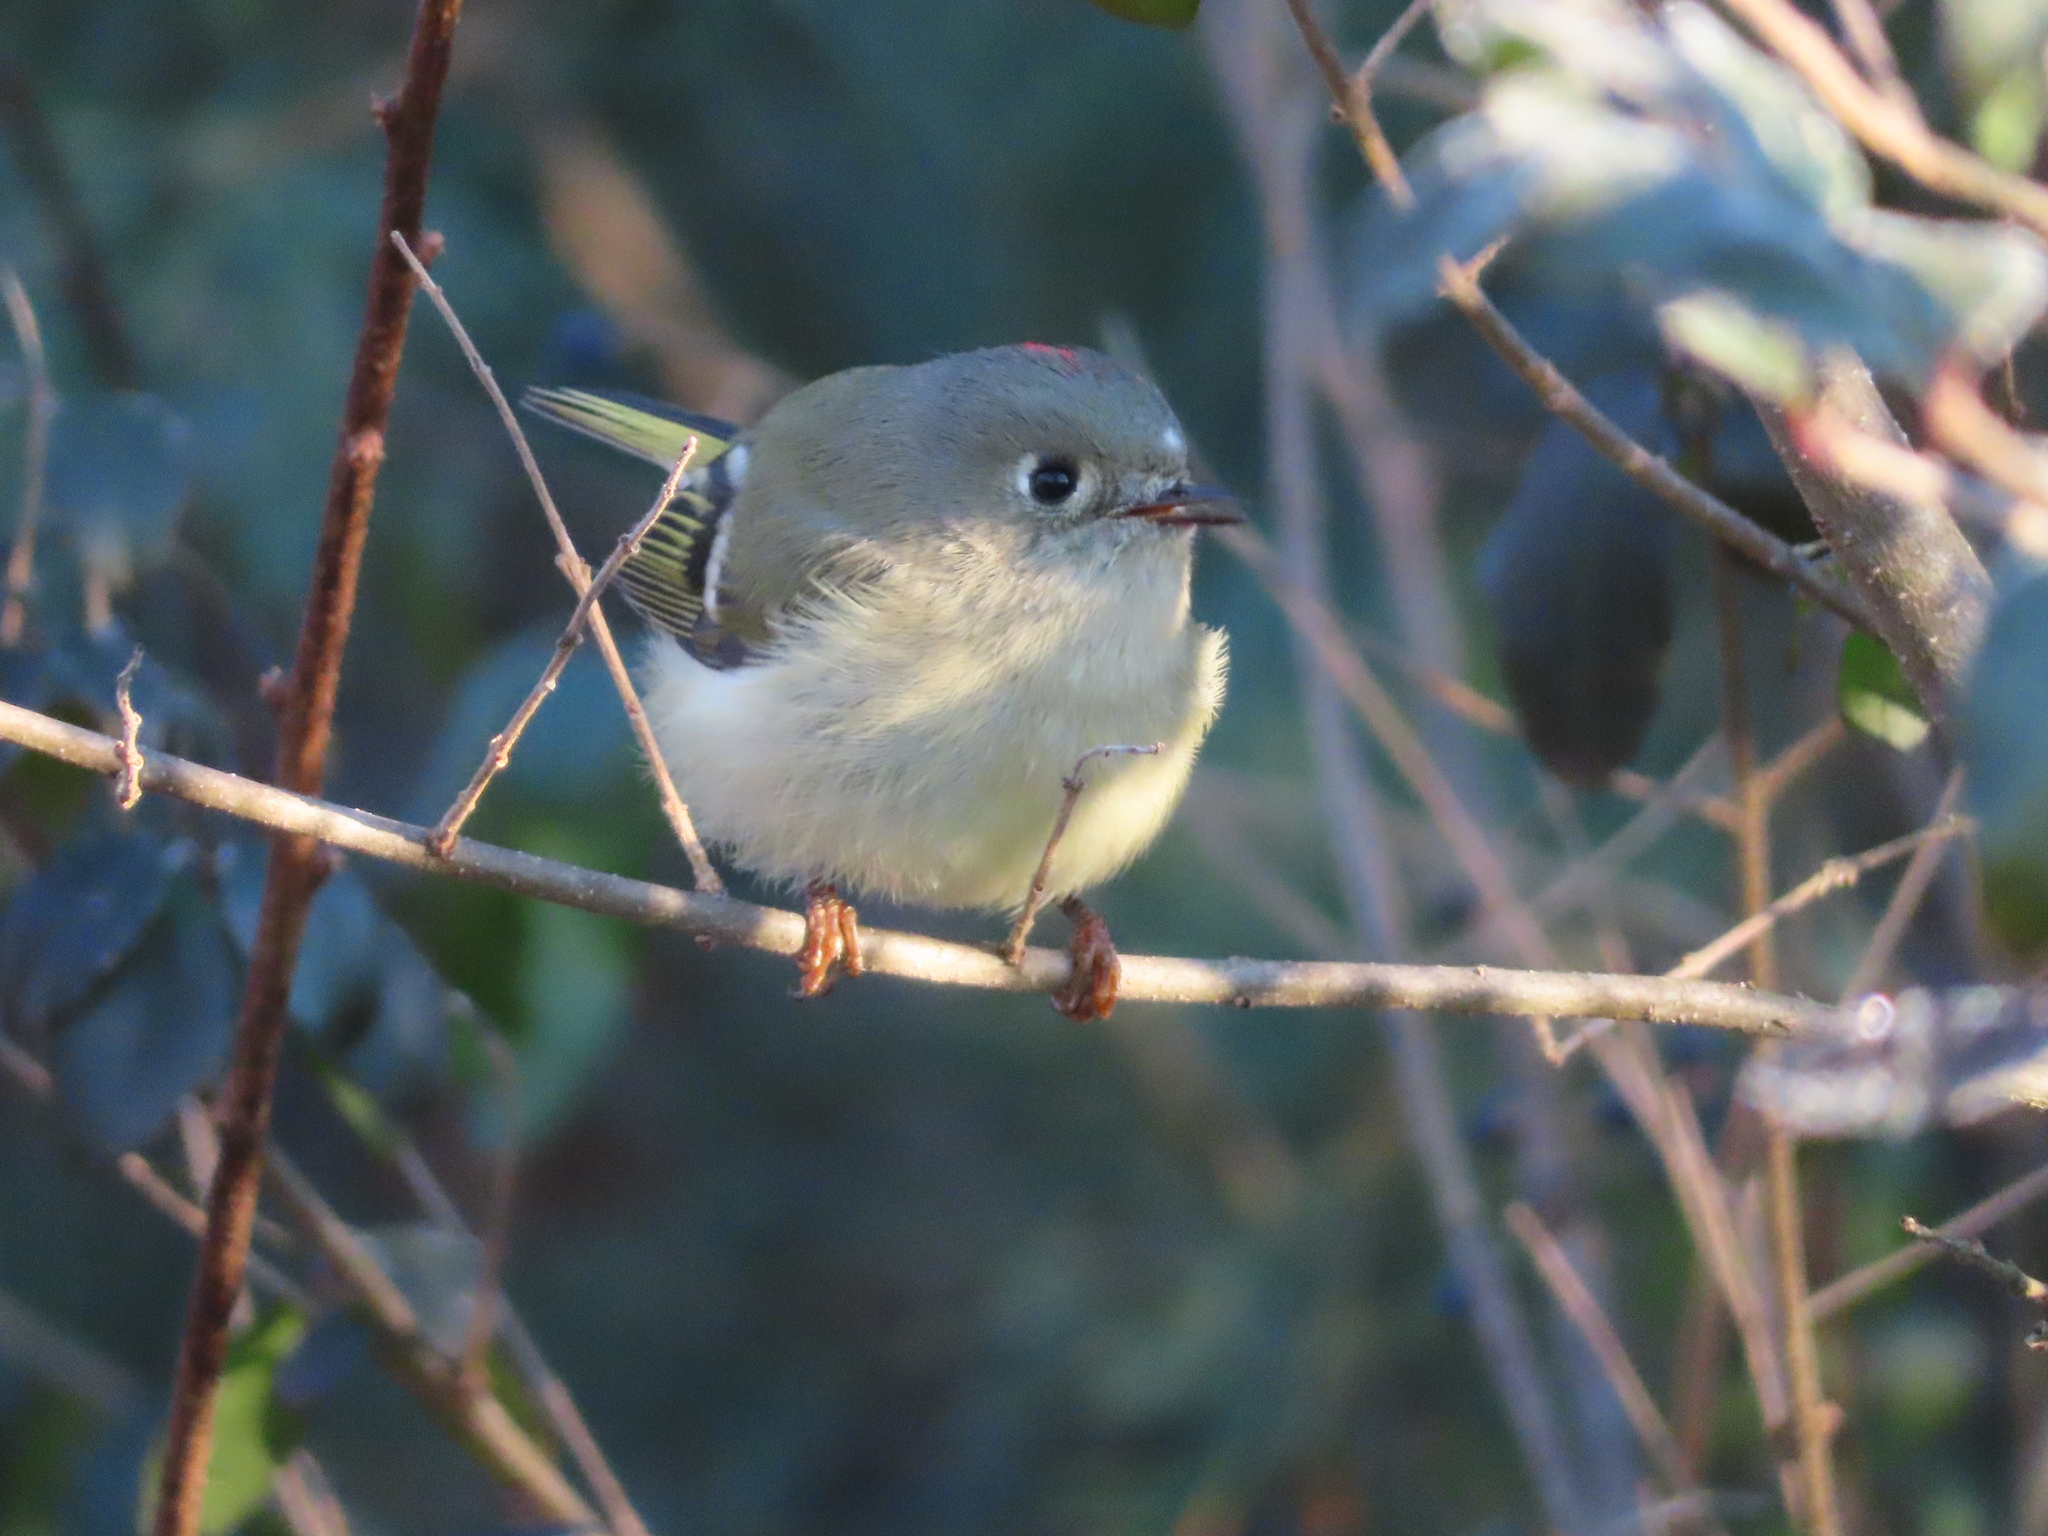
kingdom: Animalia
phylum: Chordata
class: Aves
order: Passeriformes
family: Regulidae
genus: Regulus
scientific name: Regulus calendula
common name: Ruby-crowned kinglet
